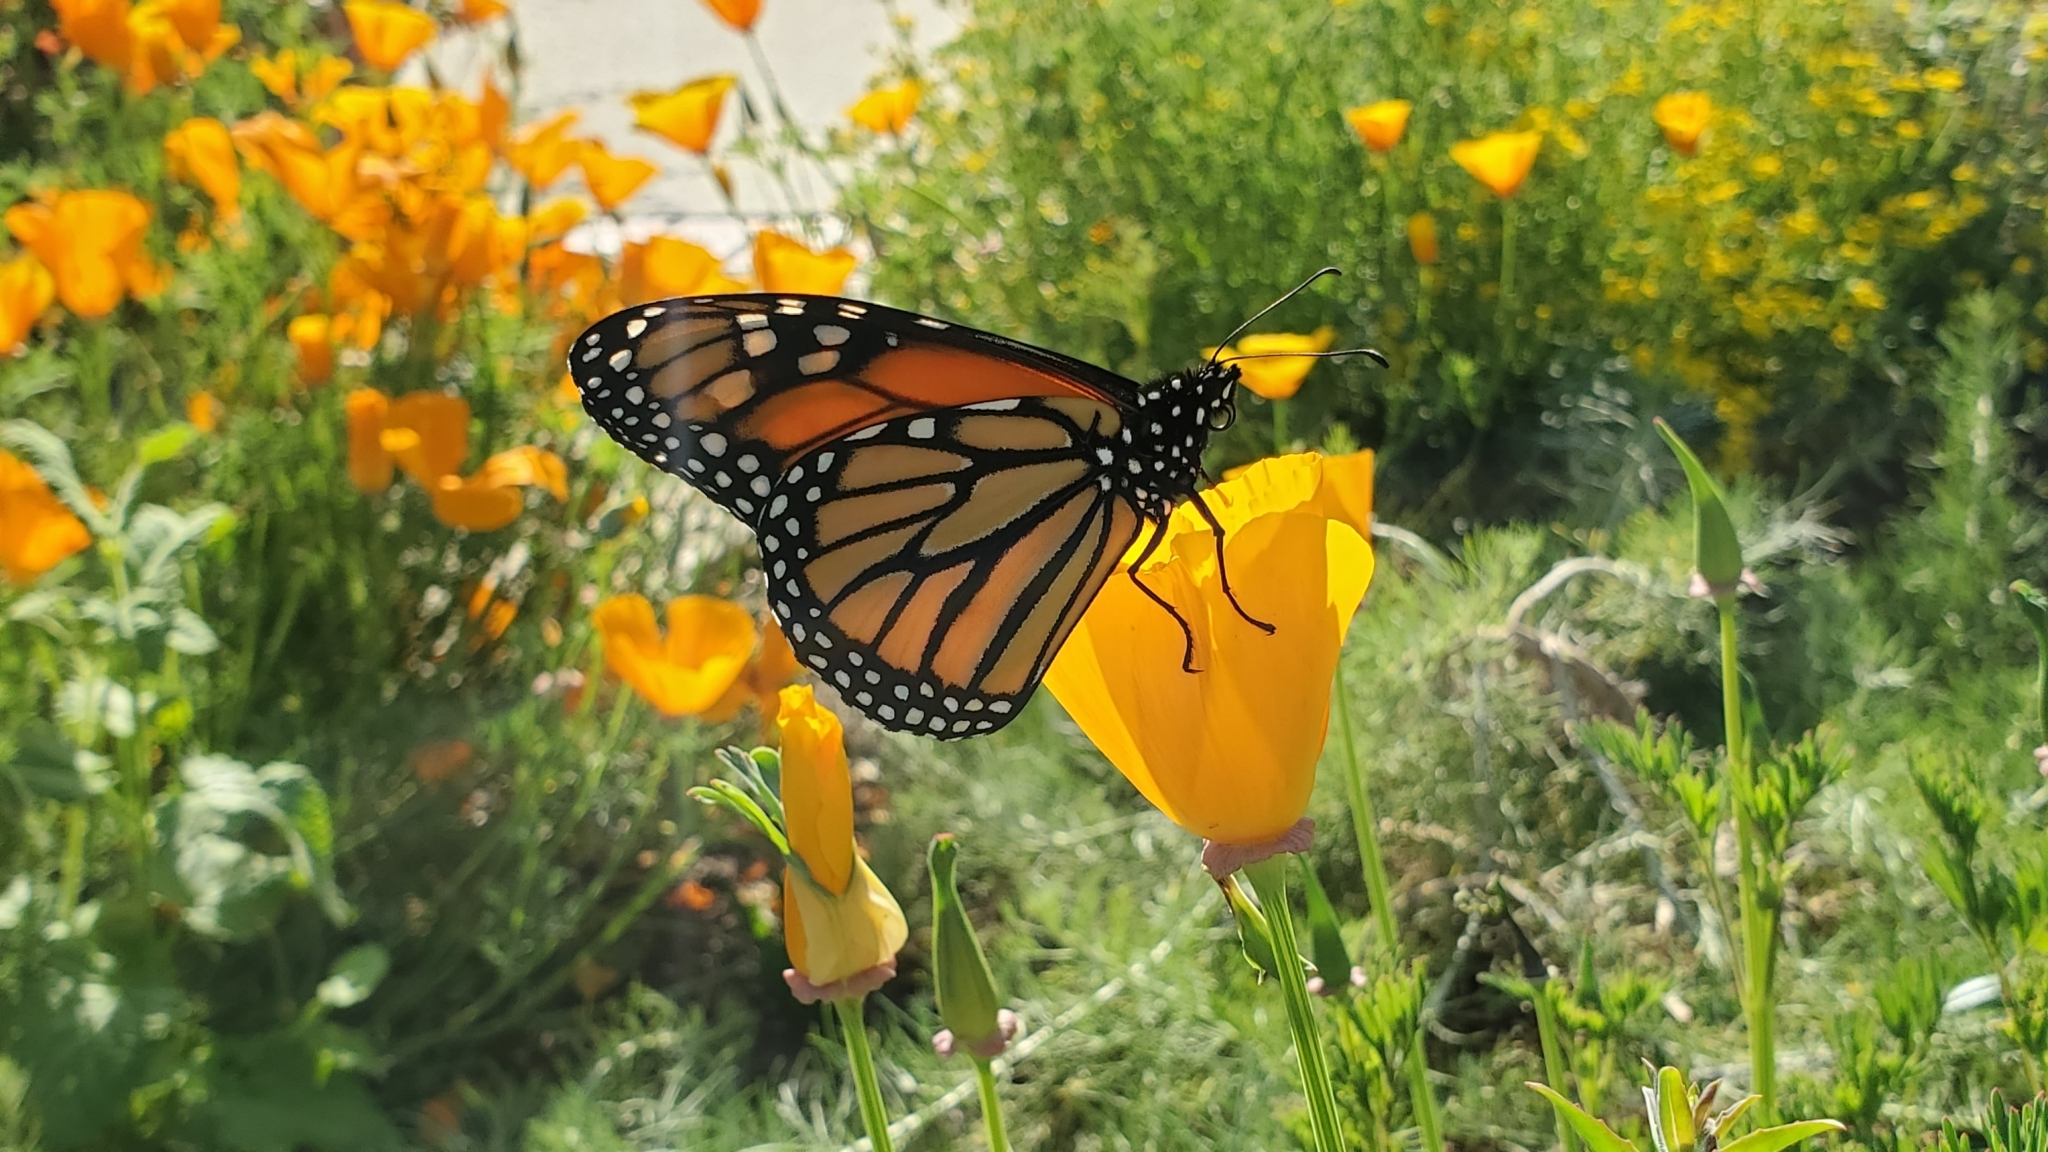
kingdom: Animalia
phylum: Arthropoda
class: Insecta
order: Lepidoptera
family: Nymphalidae
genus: Danaus
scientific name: Danaus plexippus
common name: Monarch
